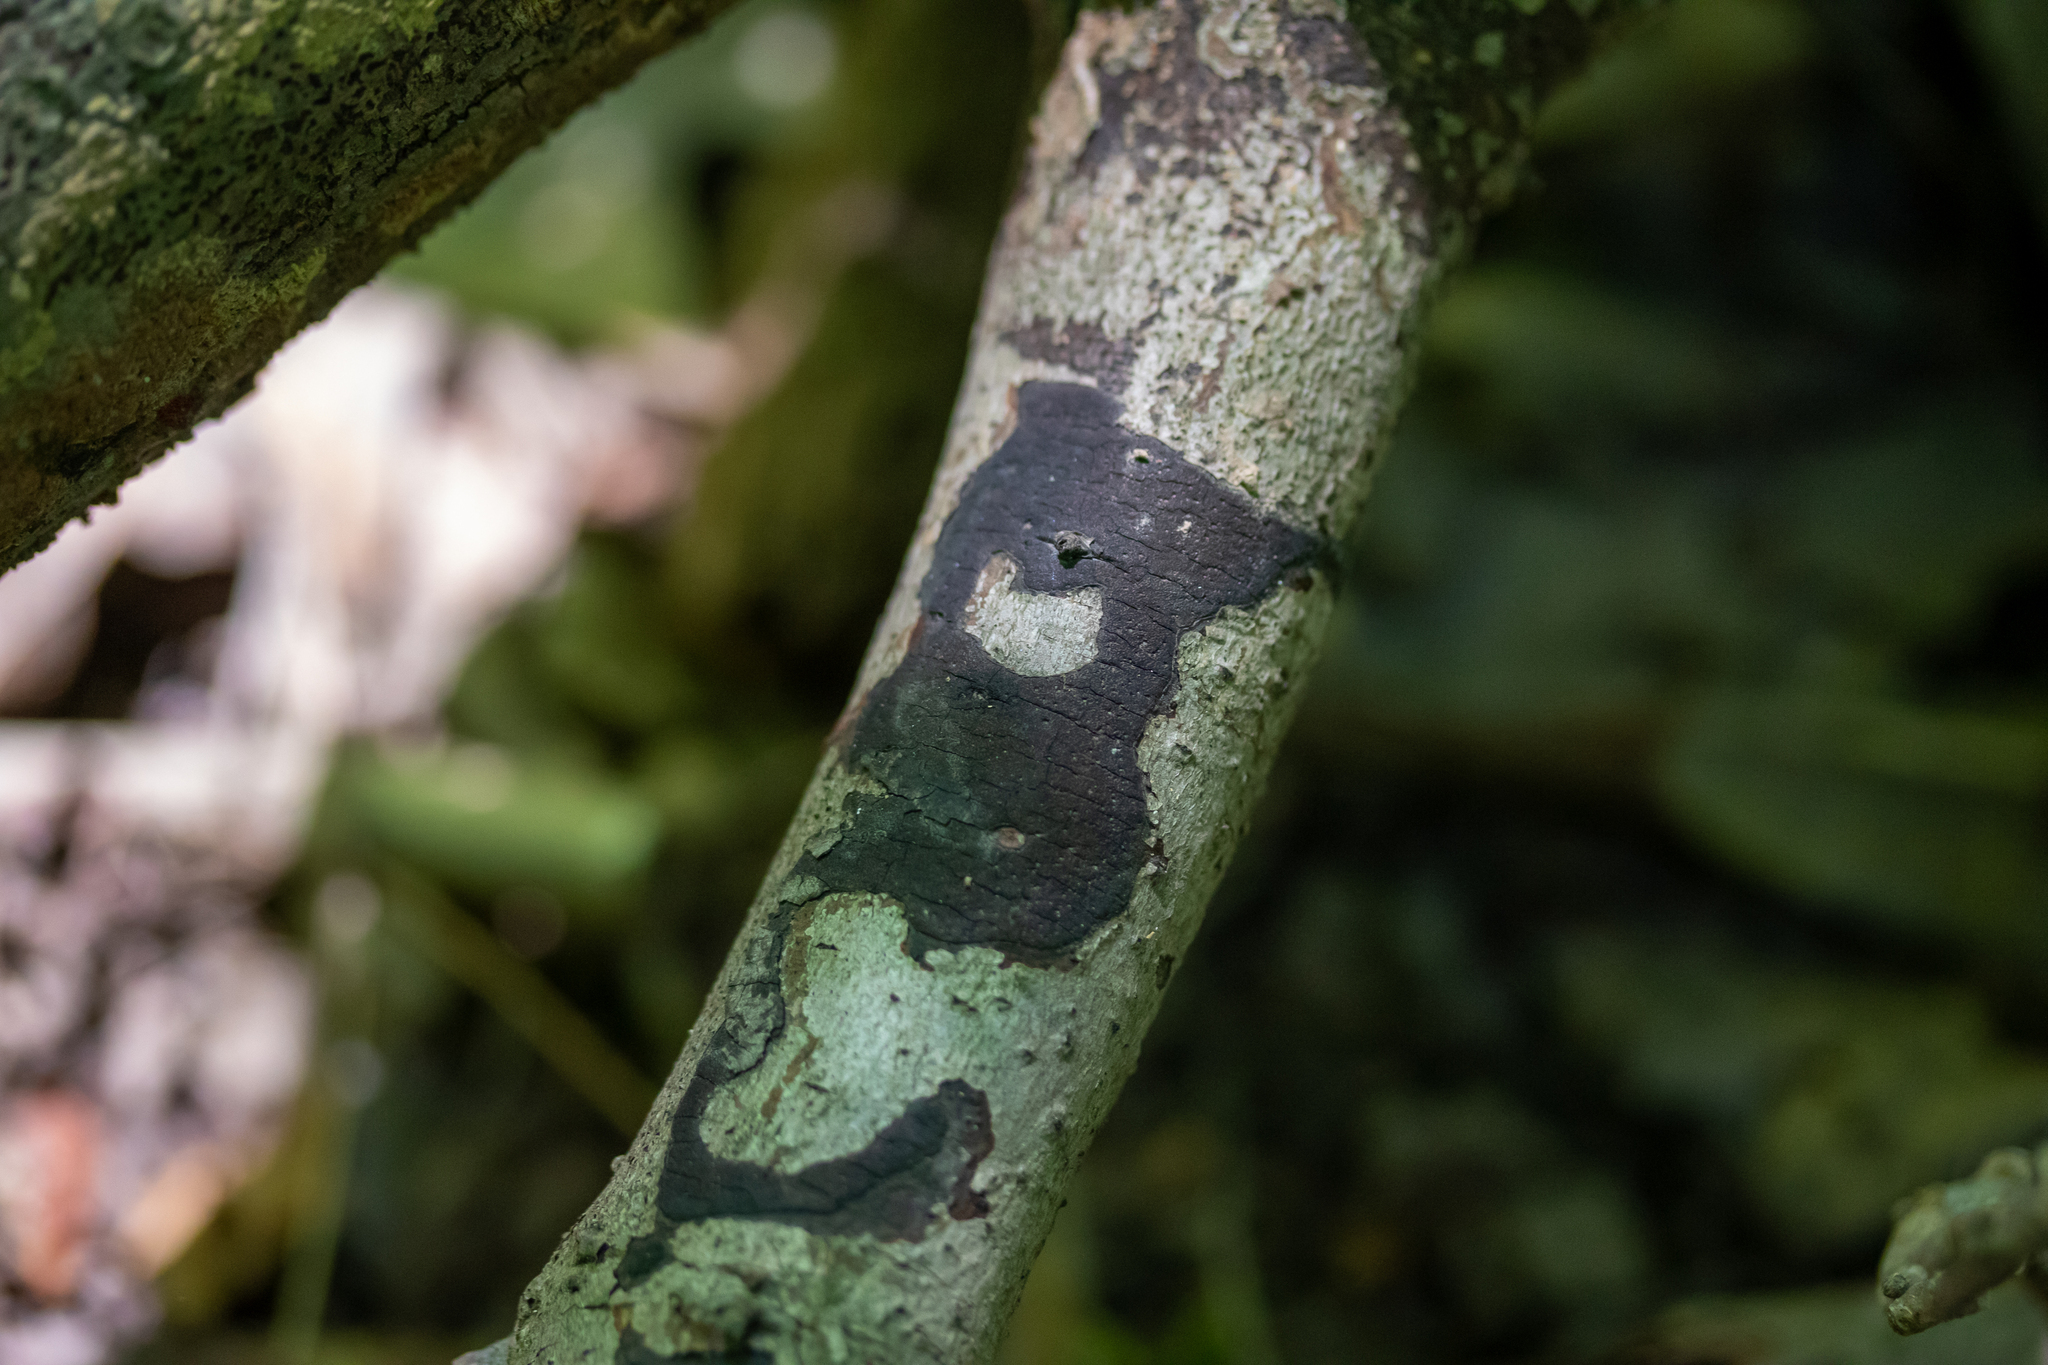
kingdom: Fungi
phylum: Ascomycota
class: Sordariomycetes
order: Xylariales
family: Diatrypaceae
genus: Diatrype
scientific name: Diatrype stigma
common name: Common tarcrust
